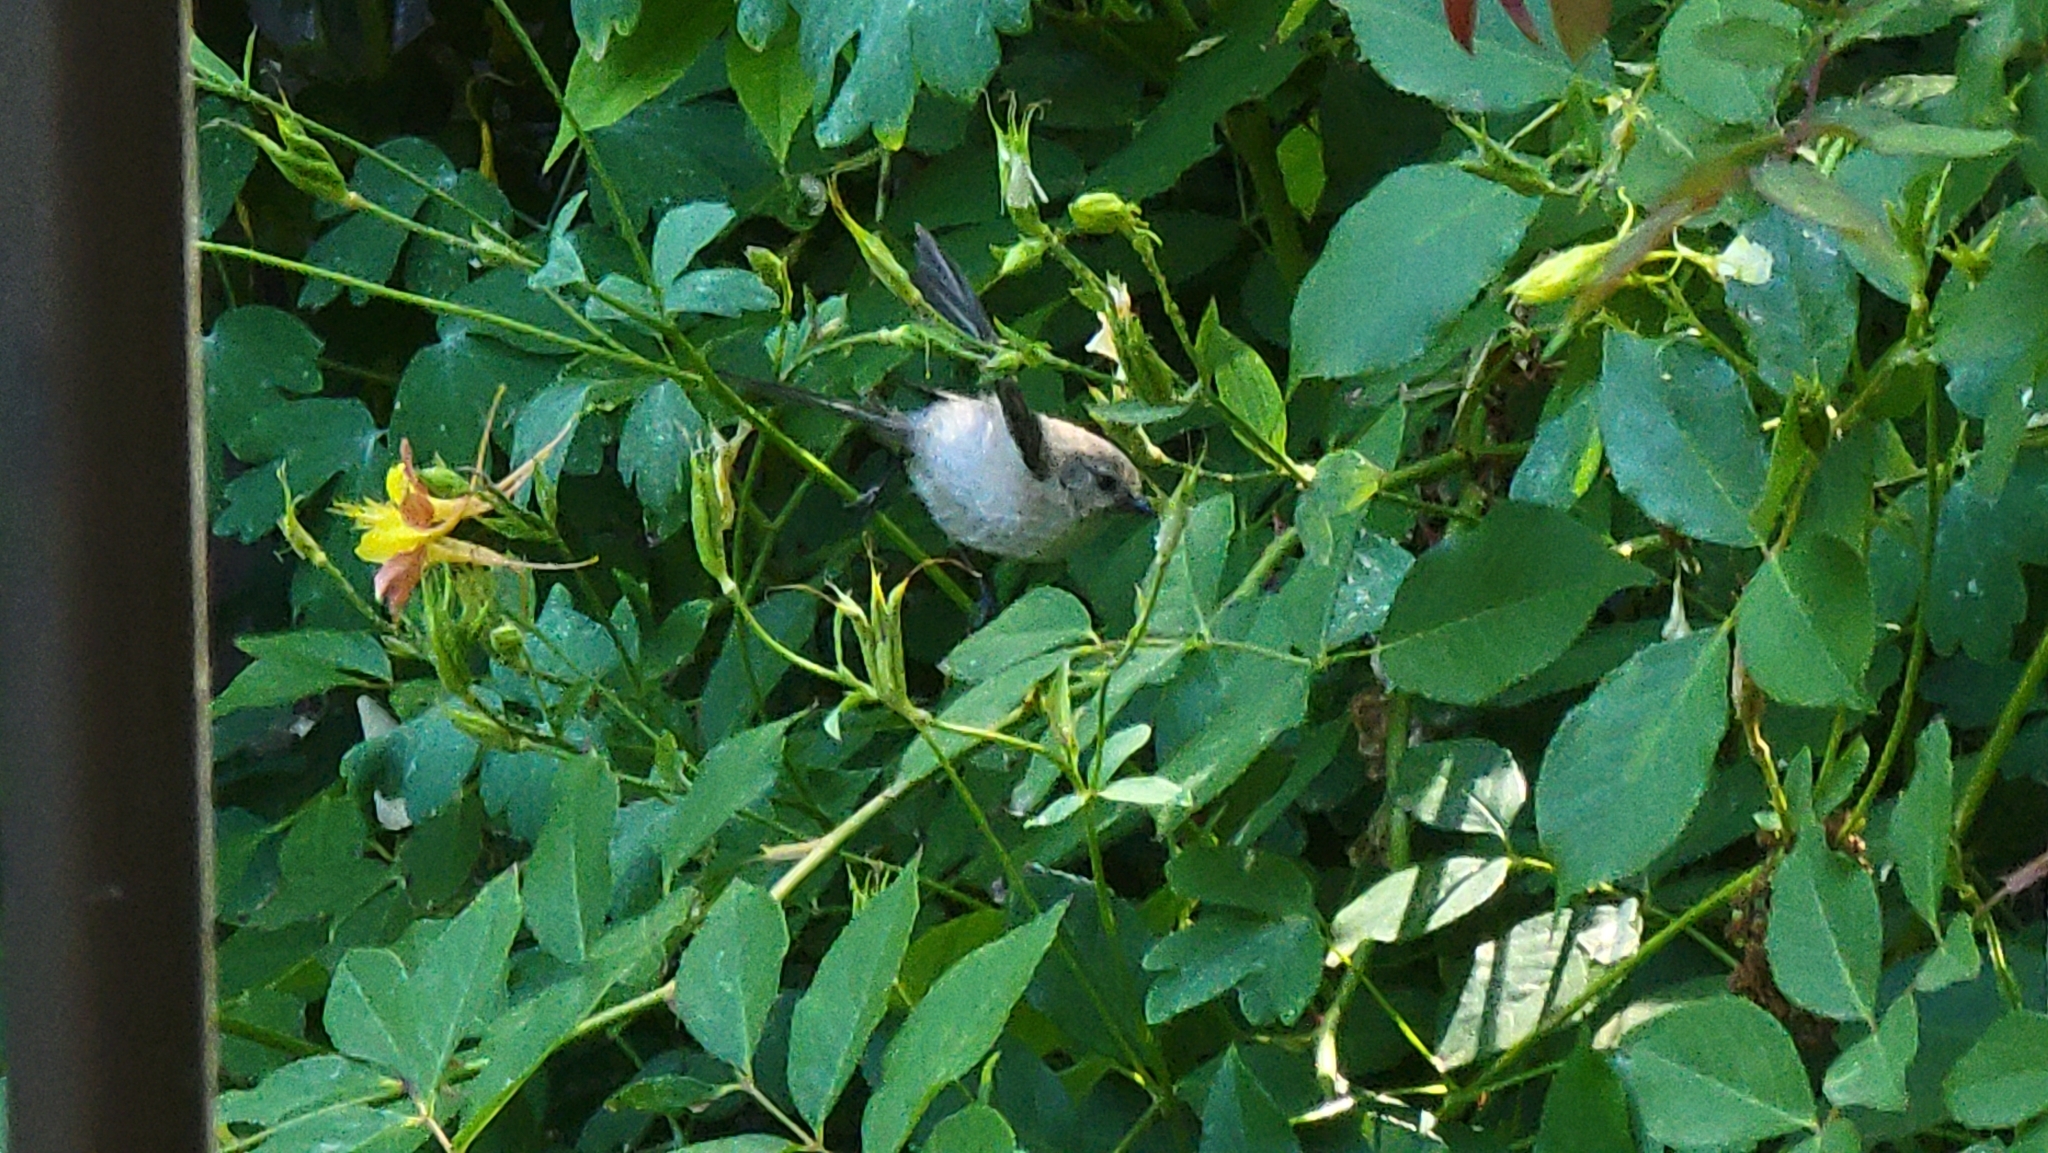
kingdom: Animalia
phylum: Chordata
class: Aves
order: Passeriformes
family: Aegithalidae
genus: Psaltriparus
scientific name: Psaltriparus minimus
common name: American bushtit
